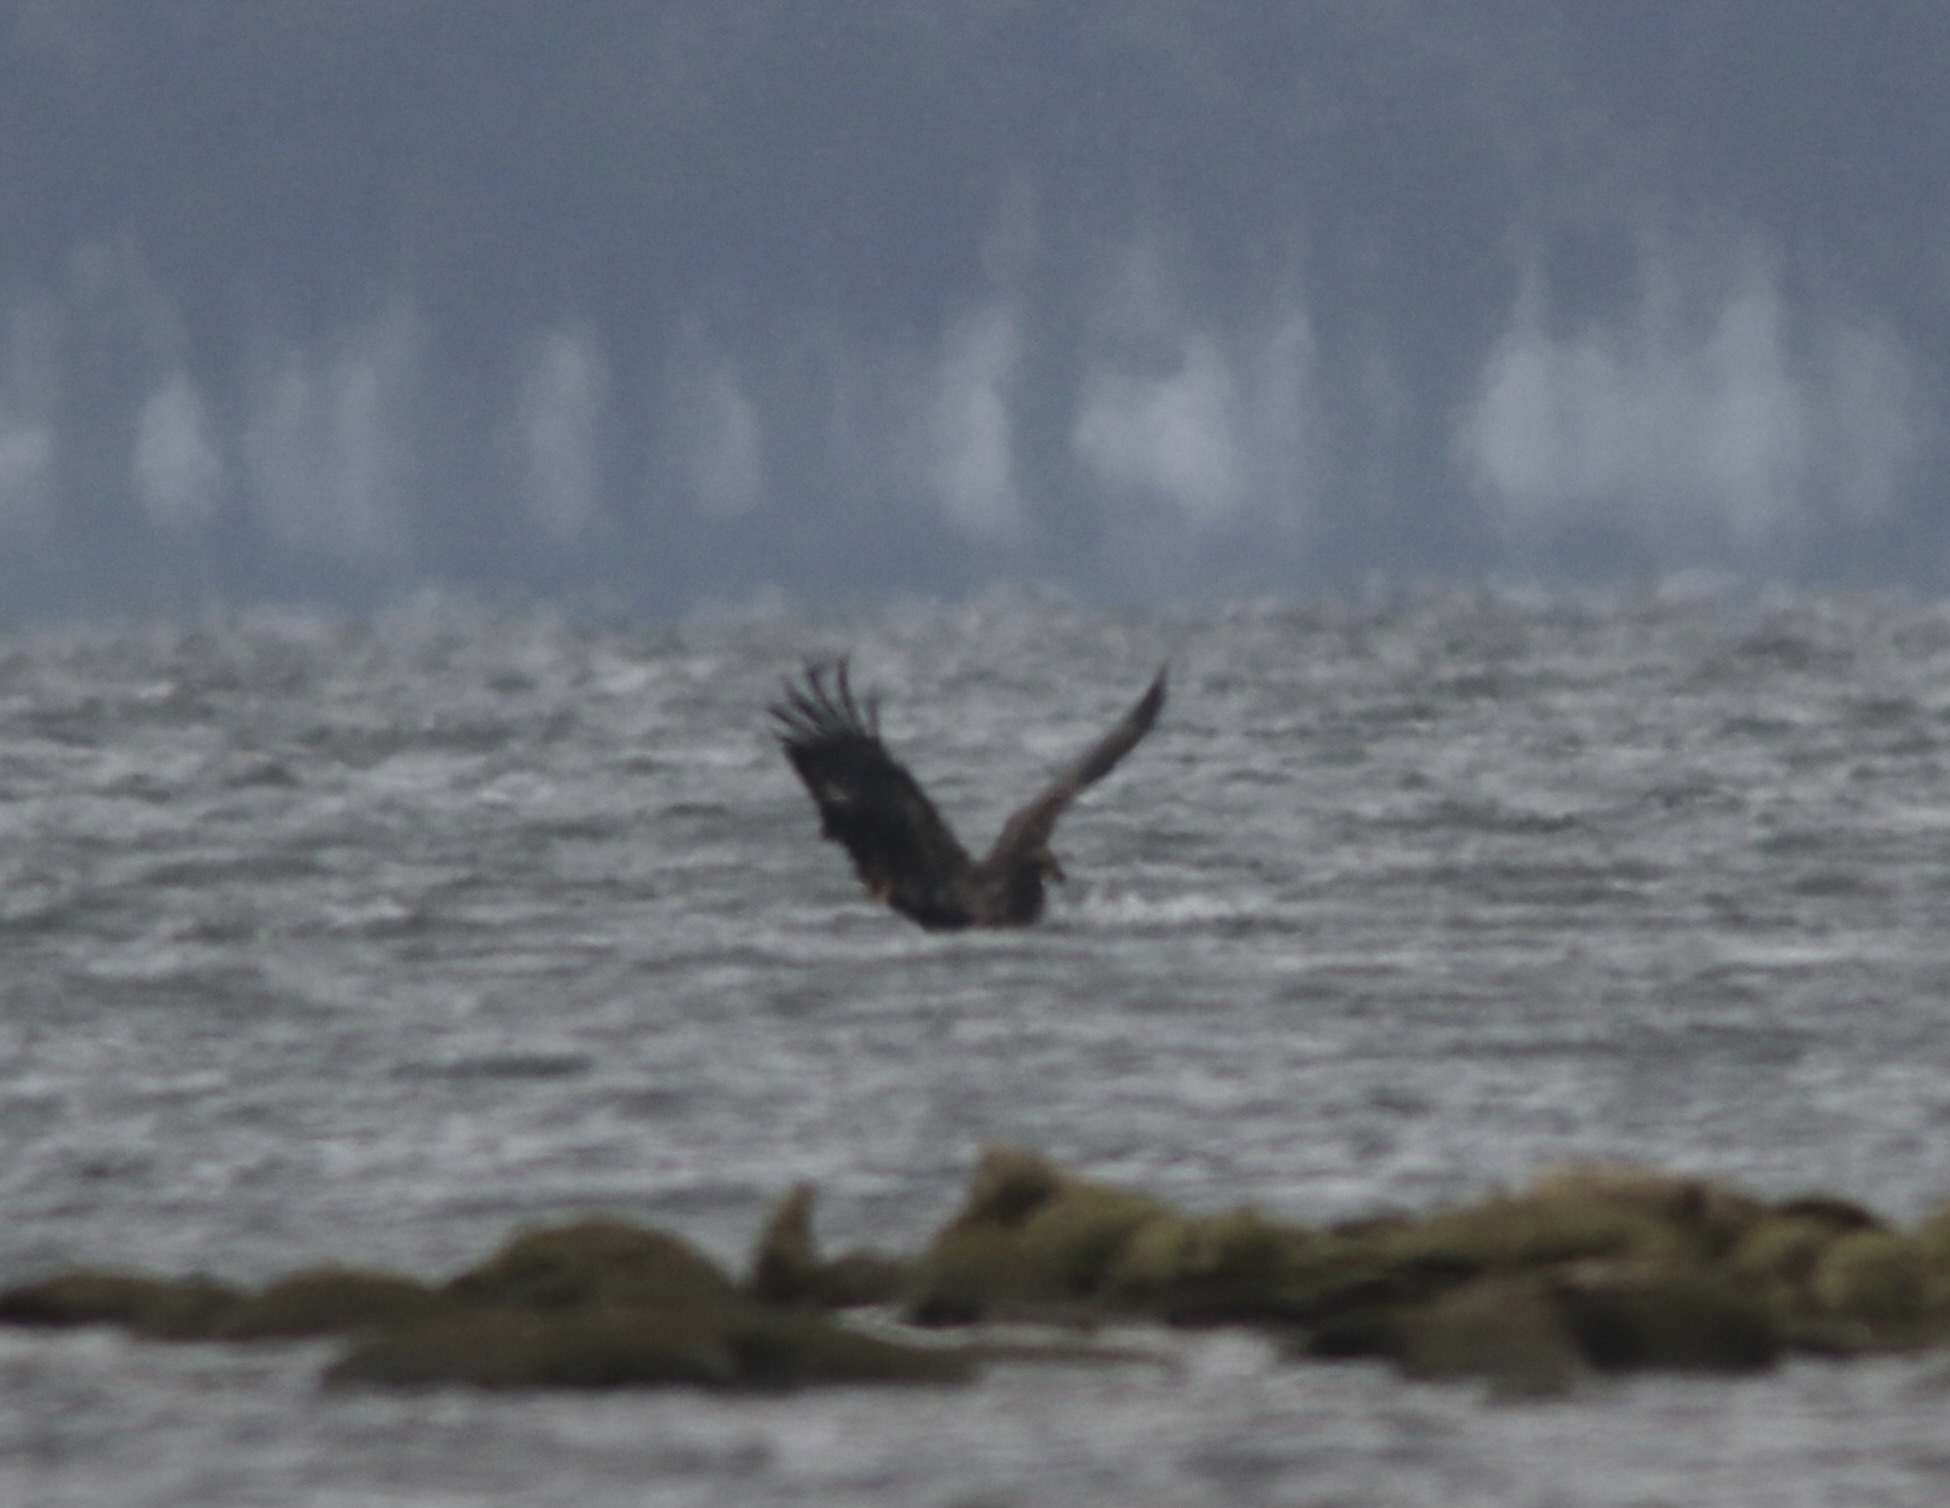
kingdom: Animalia
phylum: Chordata
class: Aves
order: Accipitriformes
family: Accipitridae
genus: Haliaeetus
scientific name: Haliaeetus leucocephalus
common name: Bald eagle
